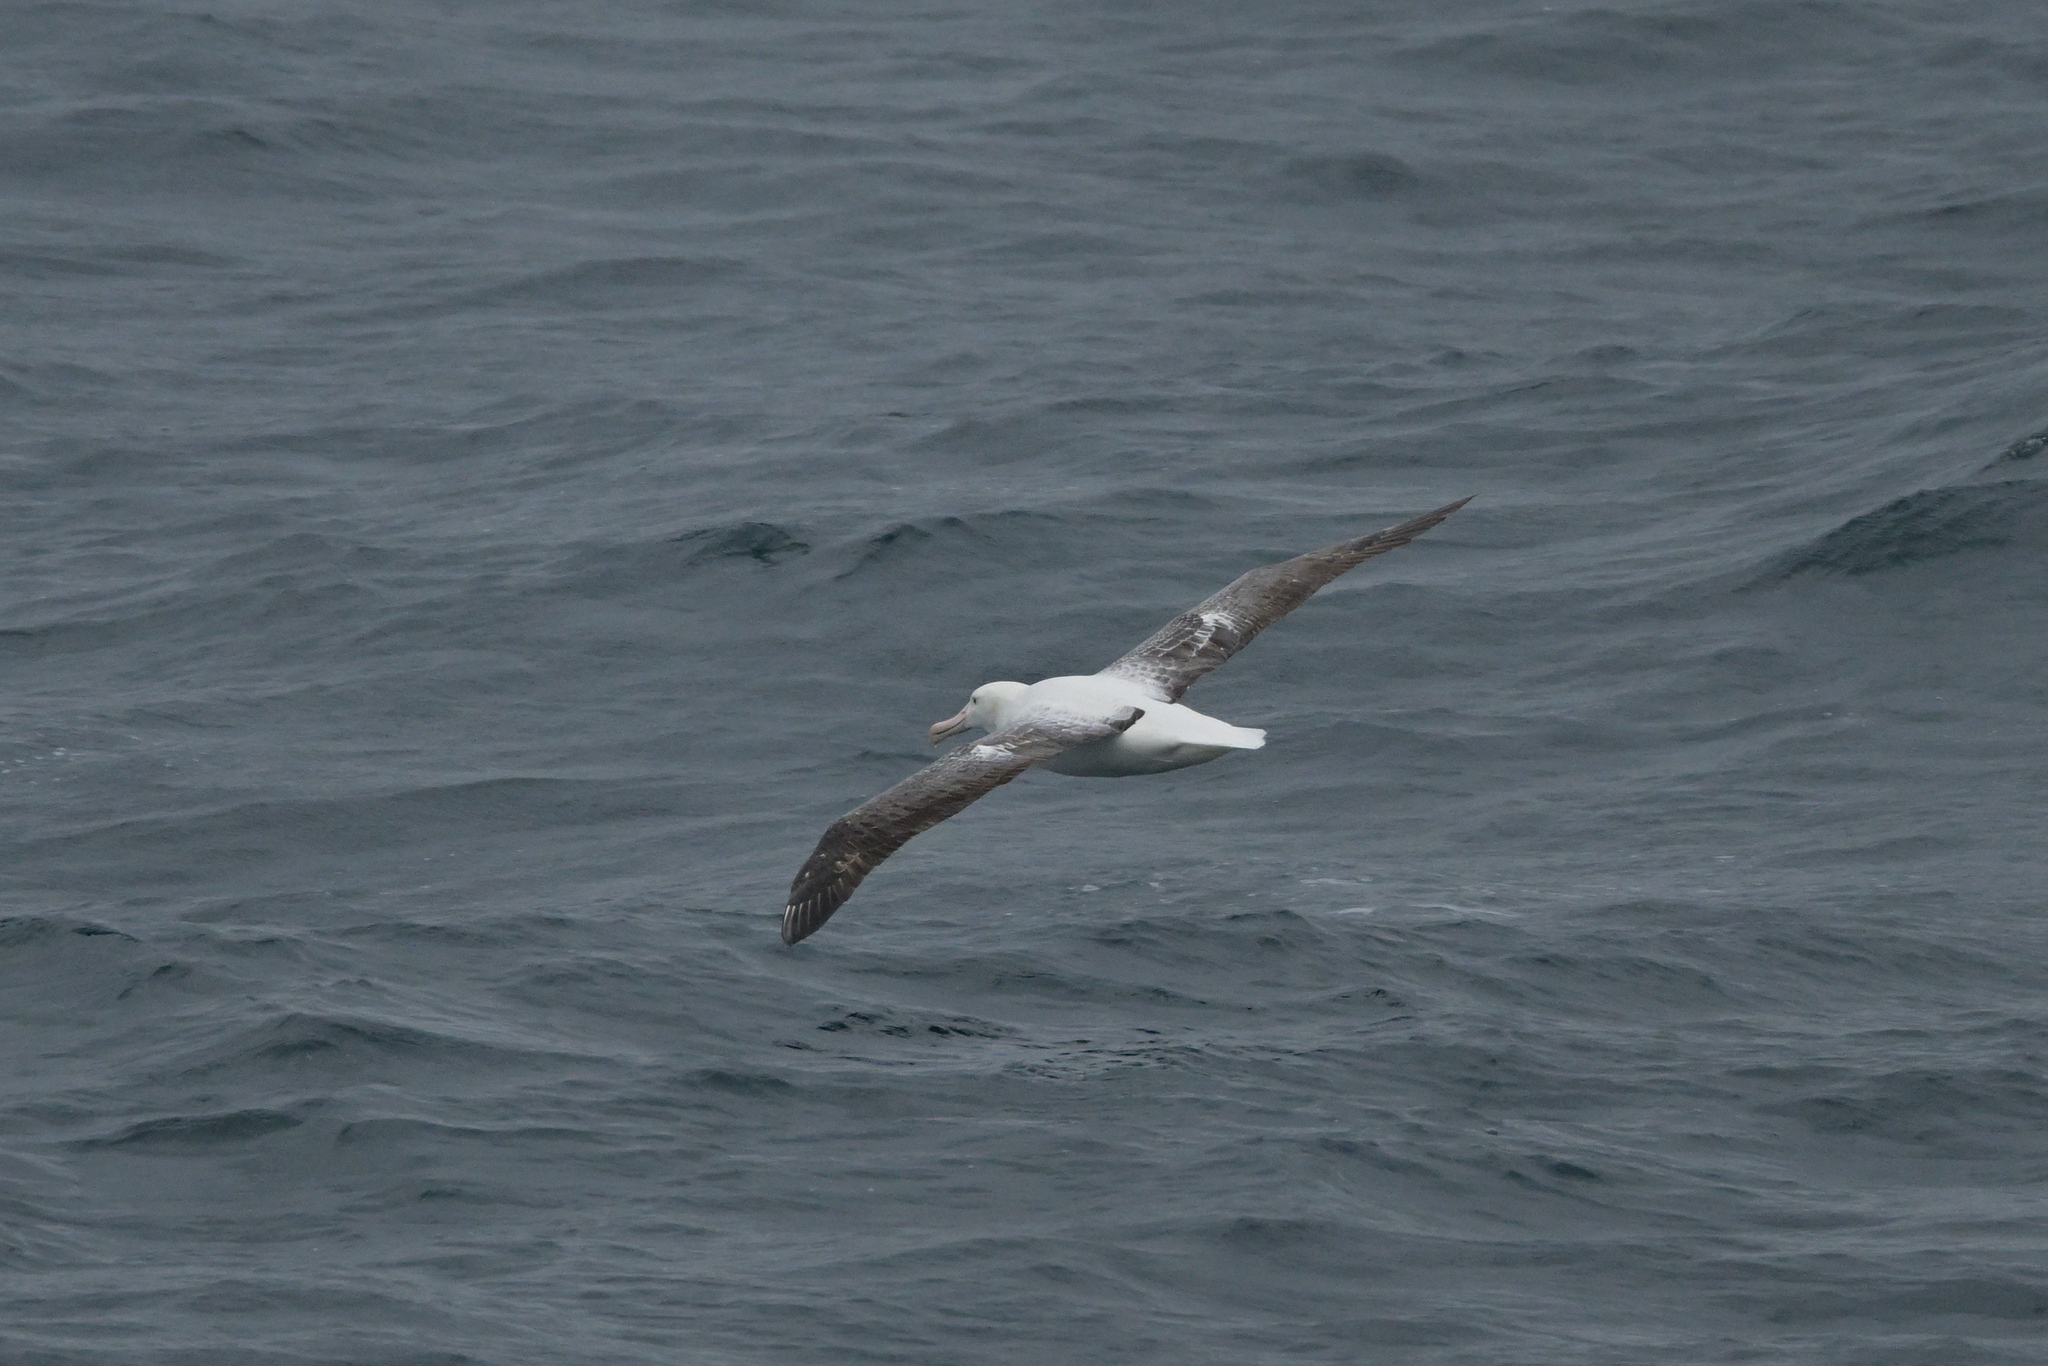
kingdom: Animalia
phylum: Chordata
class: Aves
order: Procellariiformes
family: Diomedeidae
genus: Diomedea
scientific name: Diomedea epomophora
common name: Southern royal albatross
